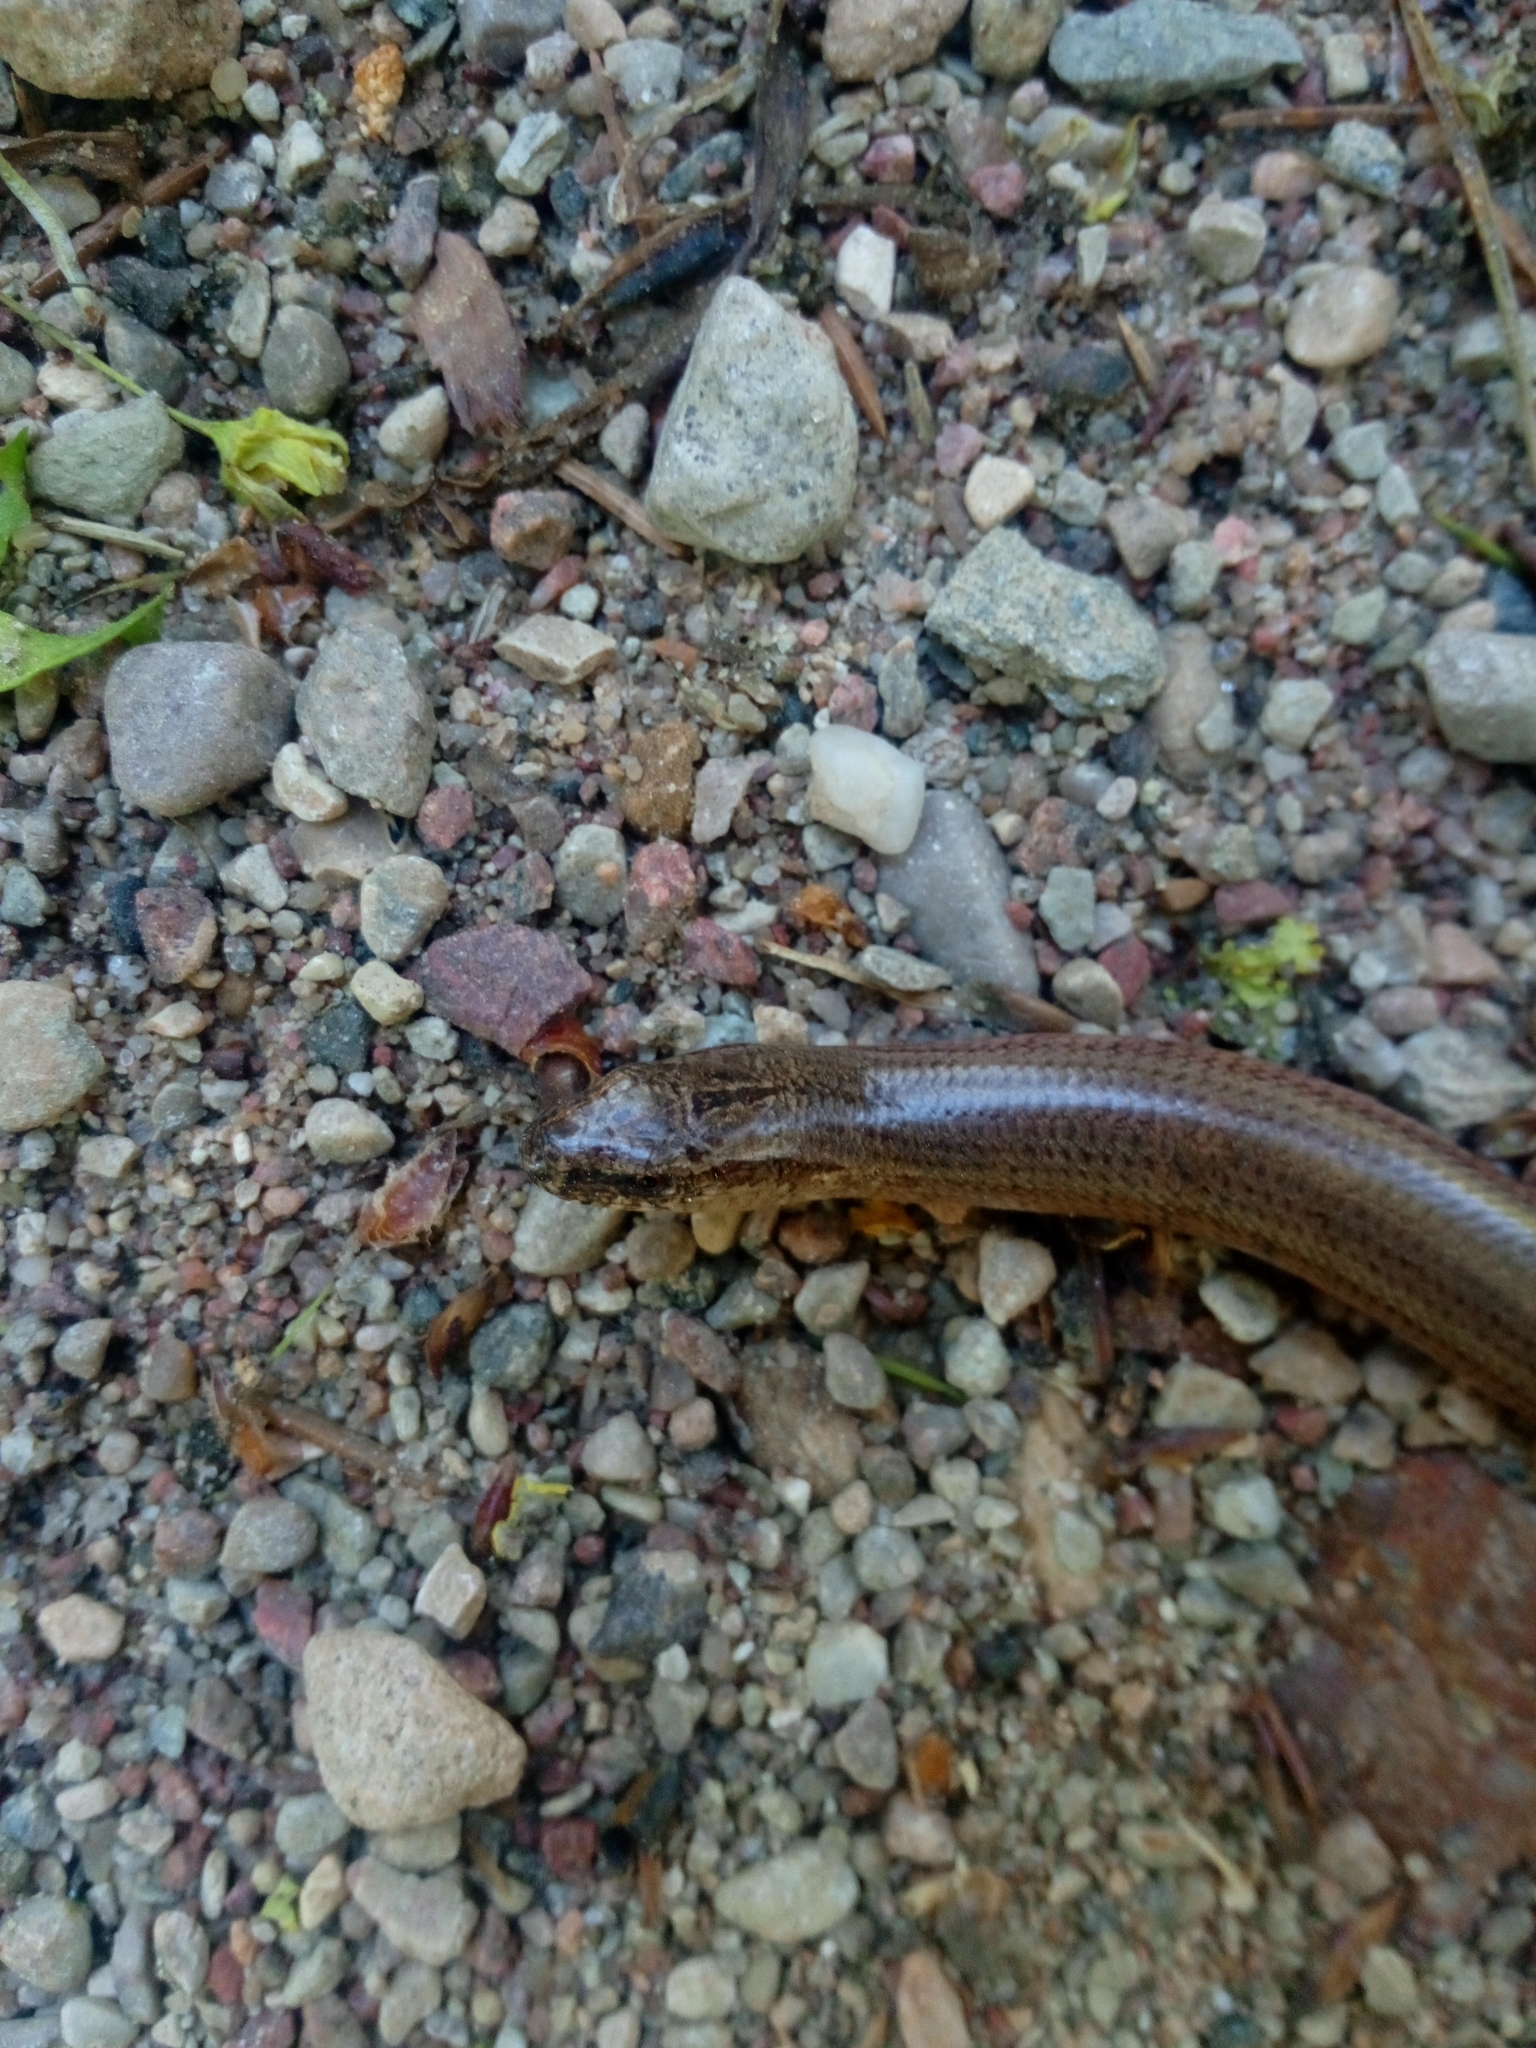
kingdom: Animalia
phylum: Chordata
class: Squamata
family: Anguidae
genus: Anguis
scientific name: Anguis fragilis
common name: Slow worm
